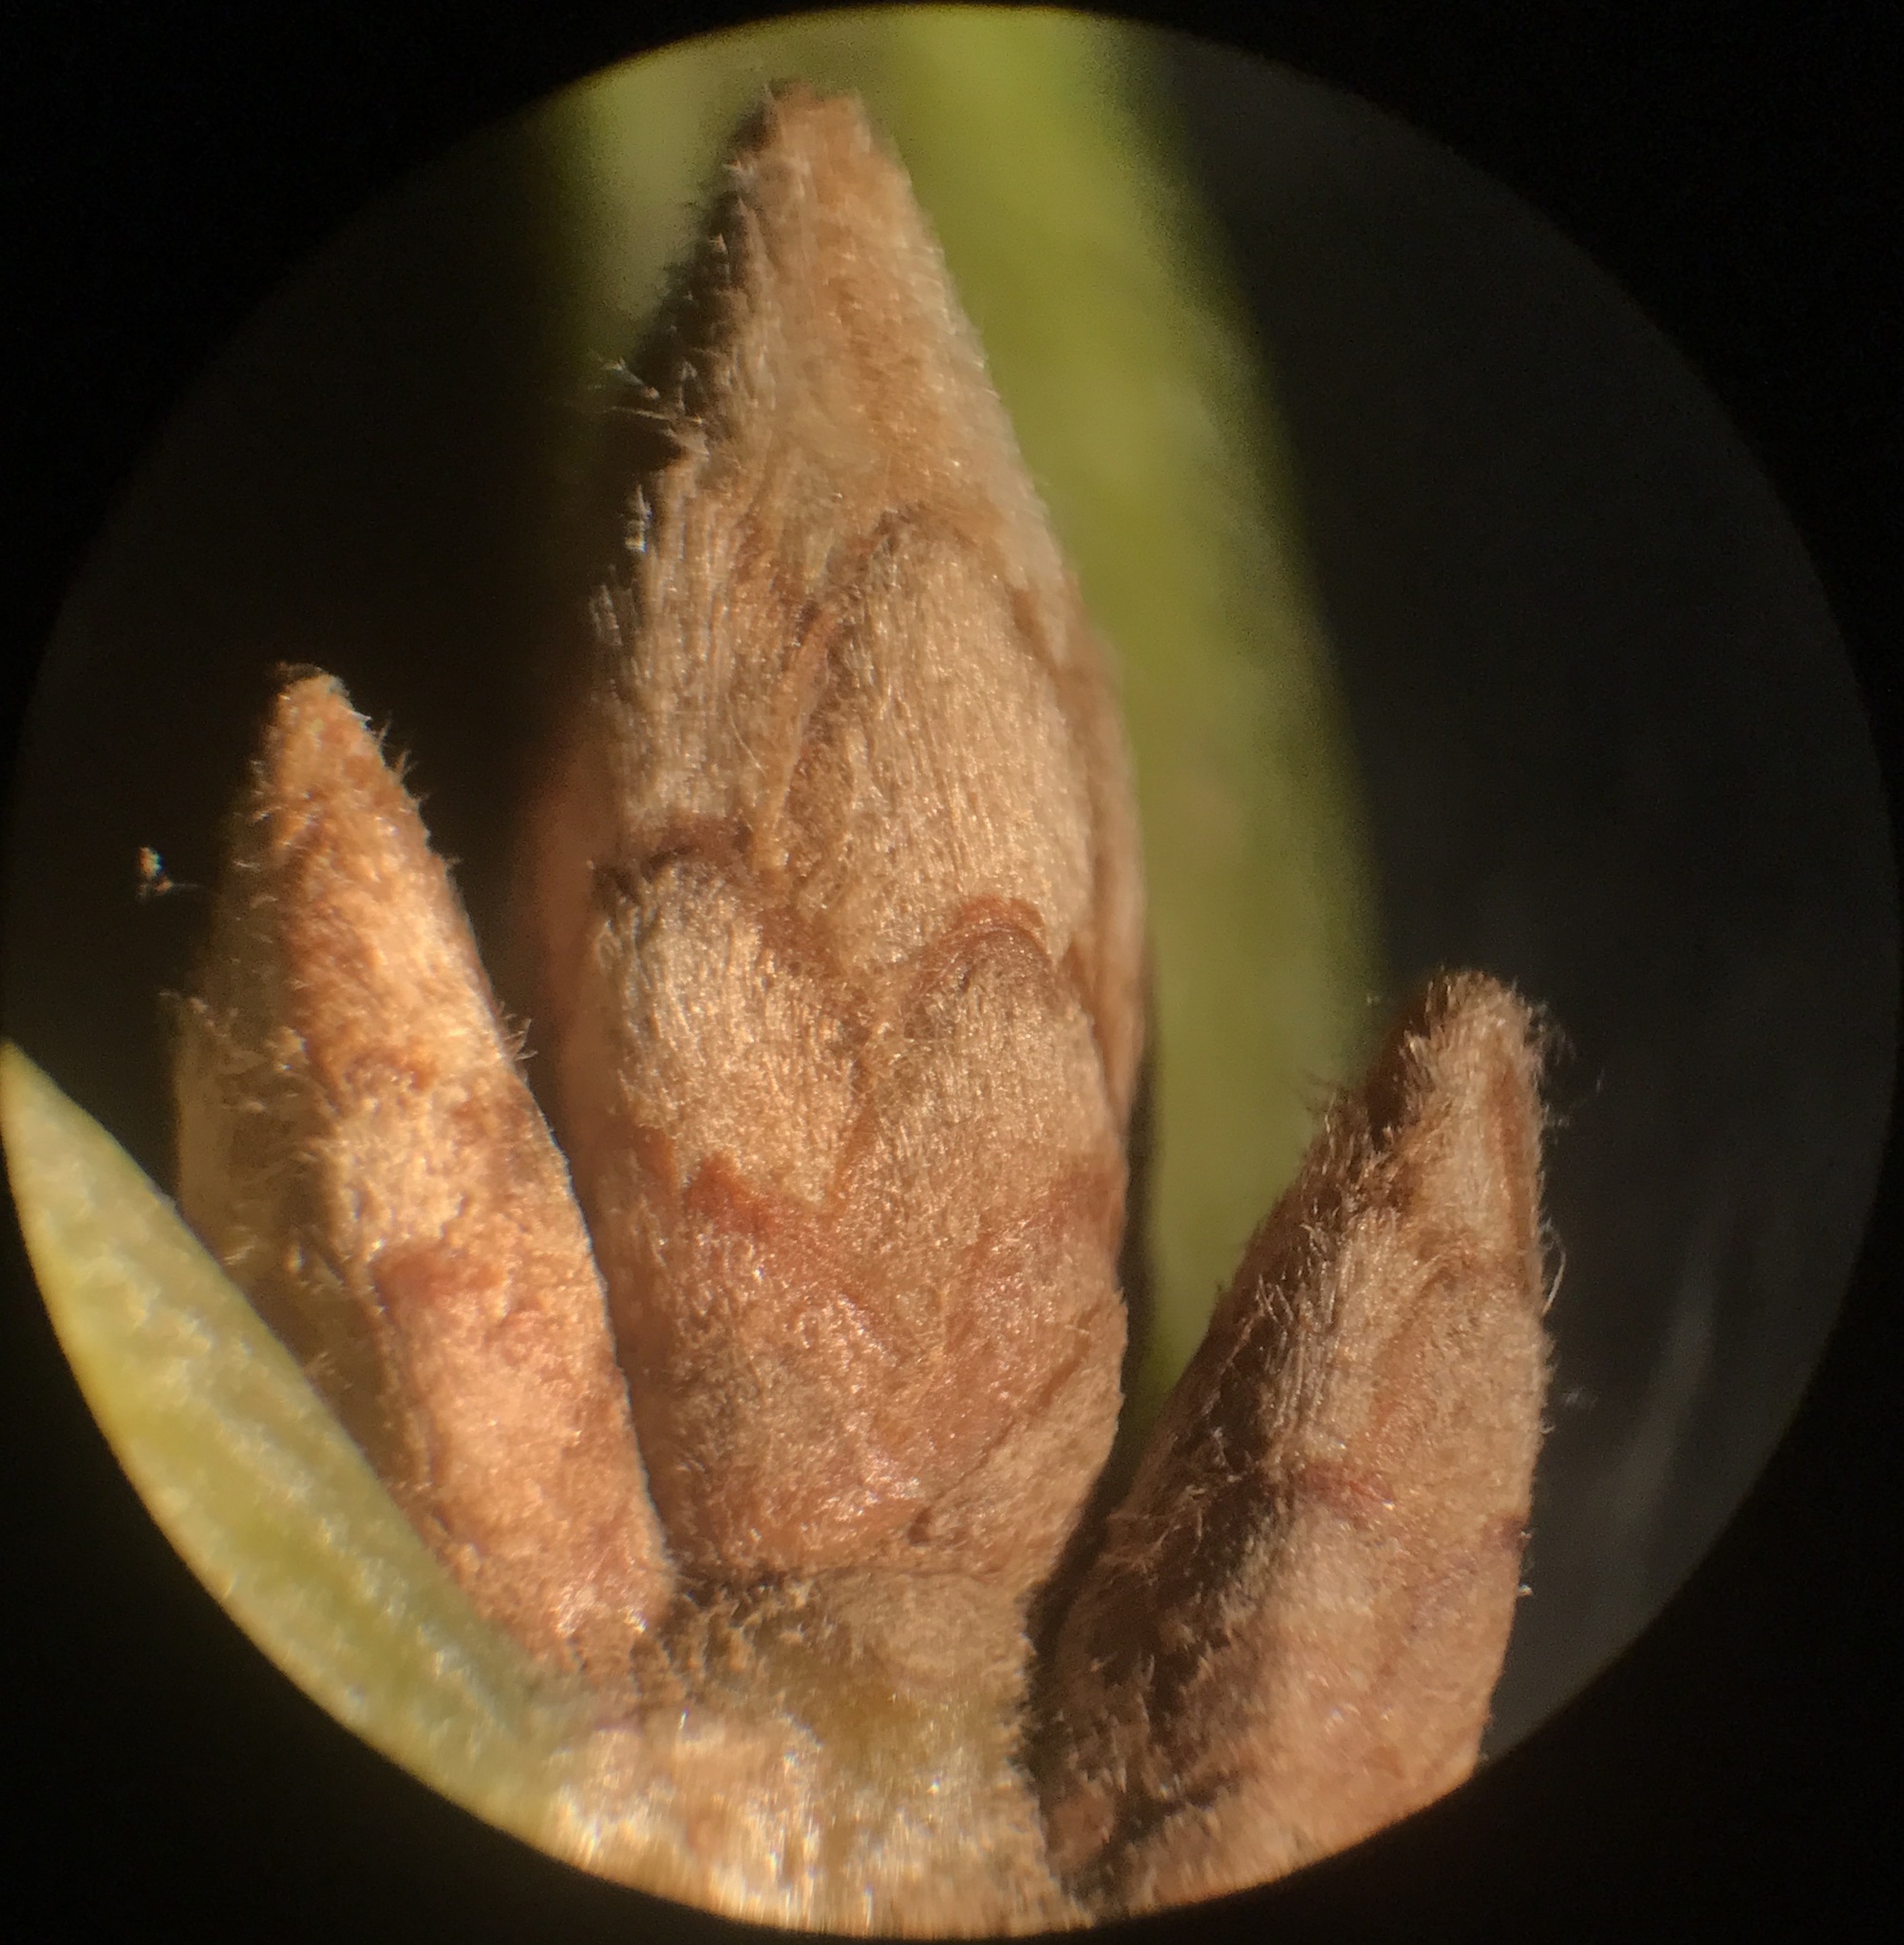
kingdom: Plantae
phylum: Tracheophyta
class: Magnoliopsida
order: Fagales
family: Fagaceae
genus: Quercus
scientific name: Quercus velutina
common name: Black oak
